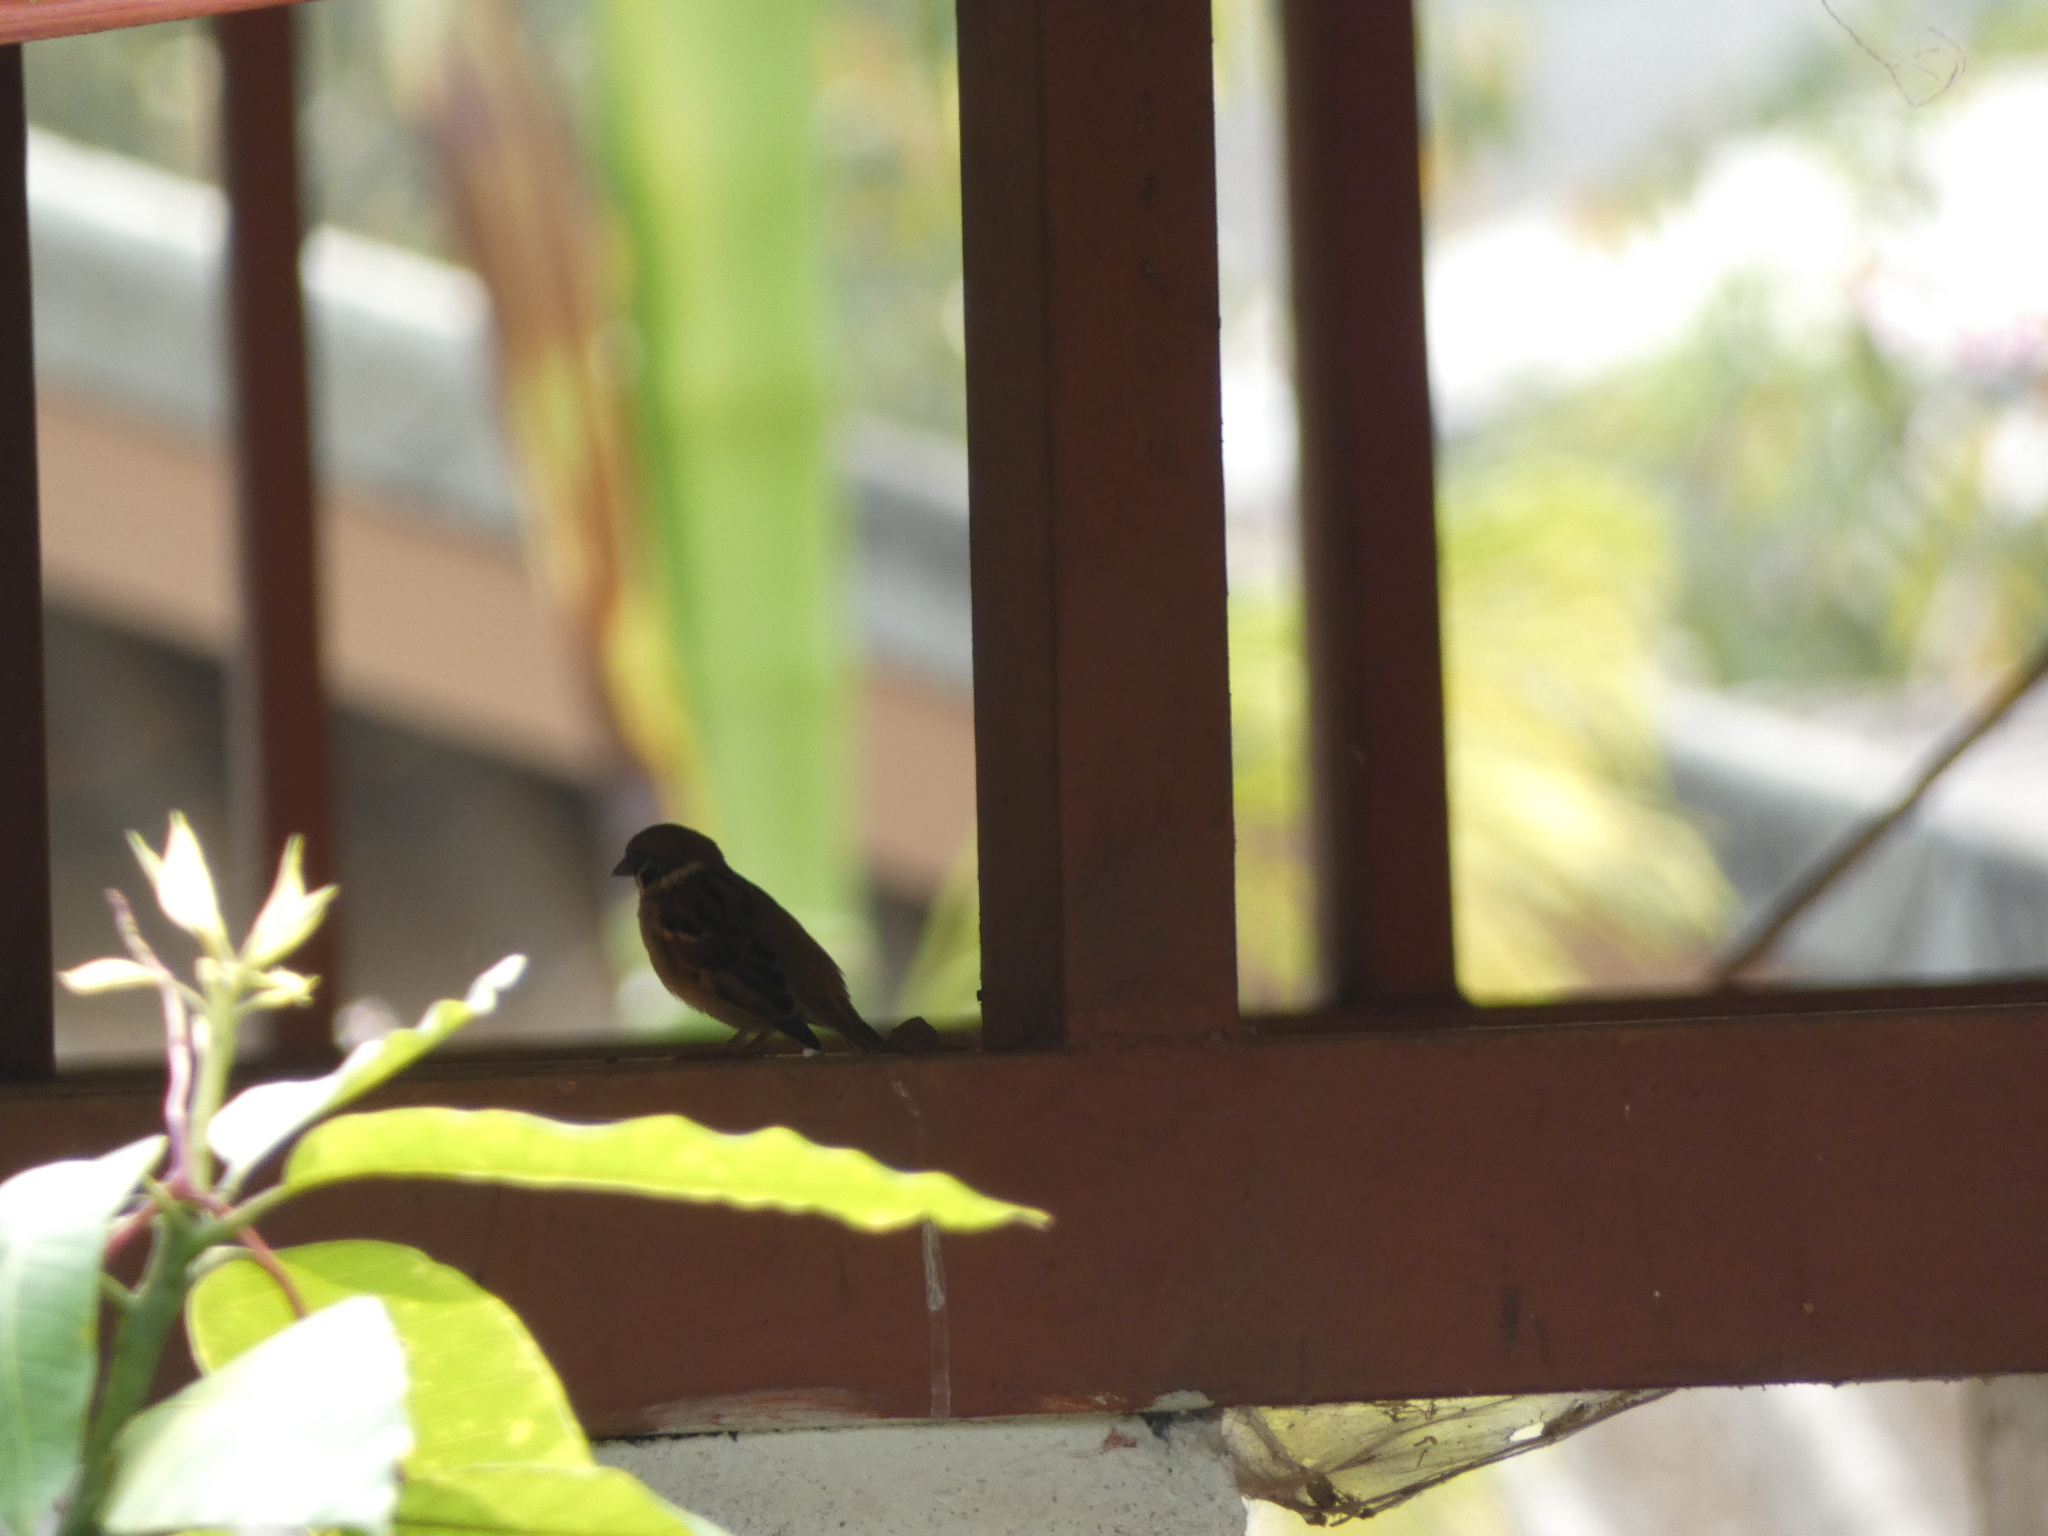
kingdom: Animalia
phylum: Chordata
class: Aves
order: Passeriformes
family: Passeridae
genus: Passer
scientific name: Passer montanus
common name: Eurasian tree sparrow
